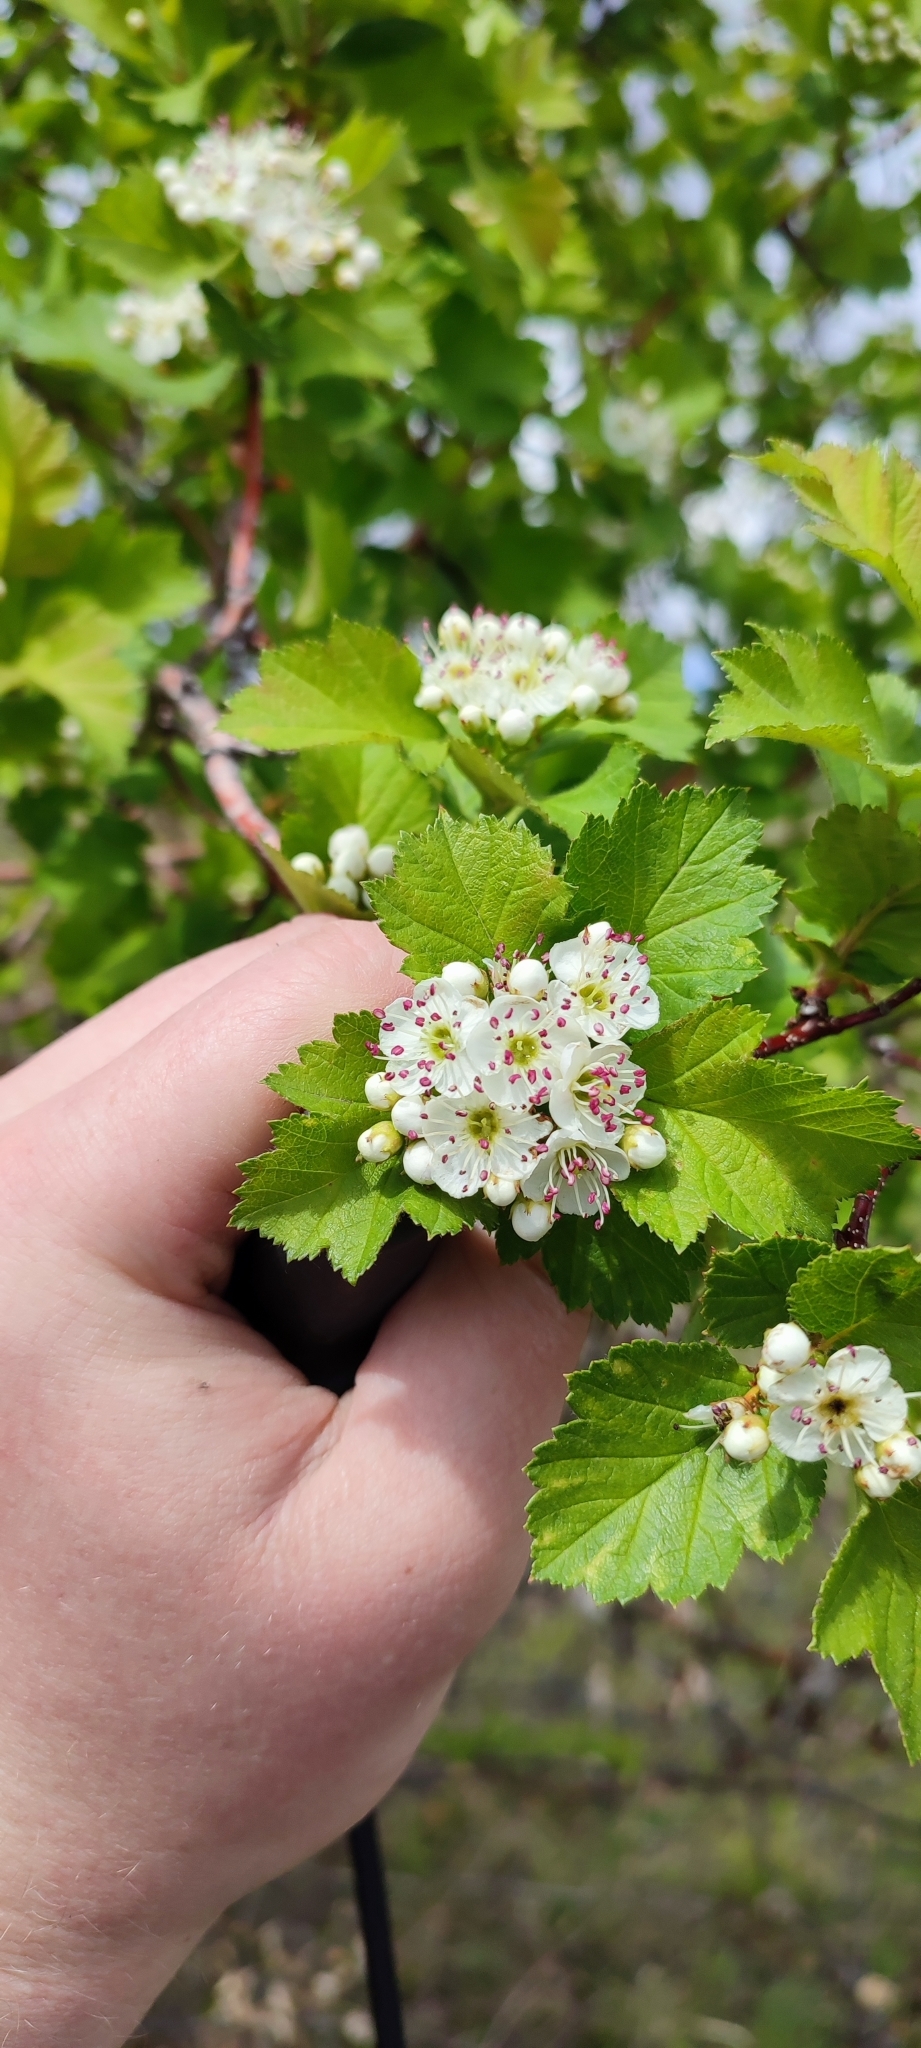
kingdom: Plantae
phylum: Tracheophyta
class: Magnoliopsida
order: Rosales
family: Rosaceae
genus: Crataegus
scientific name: Crataegus sanguinea
